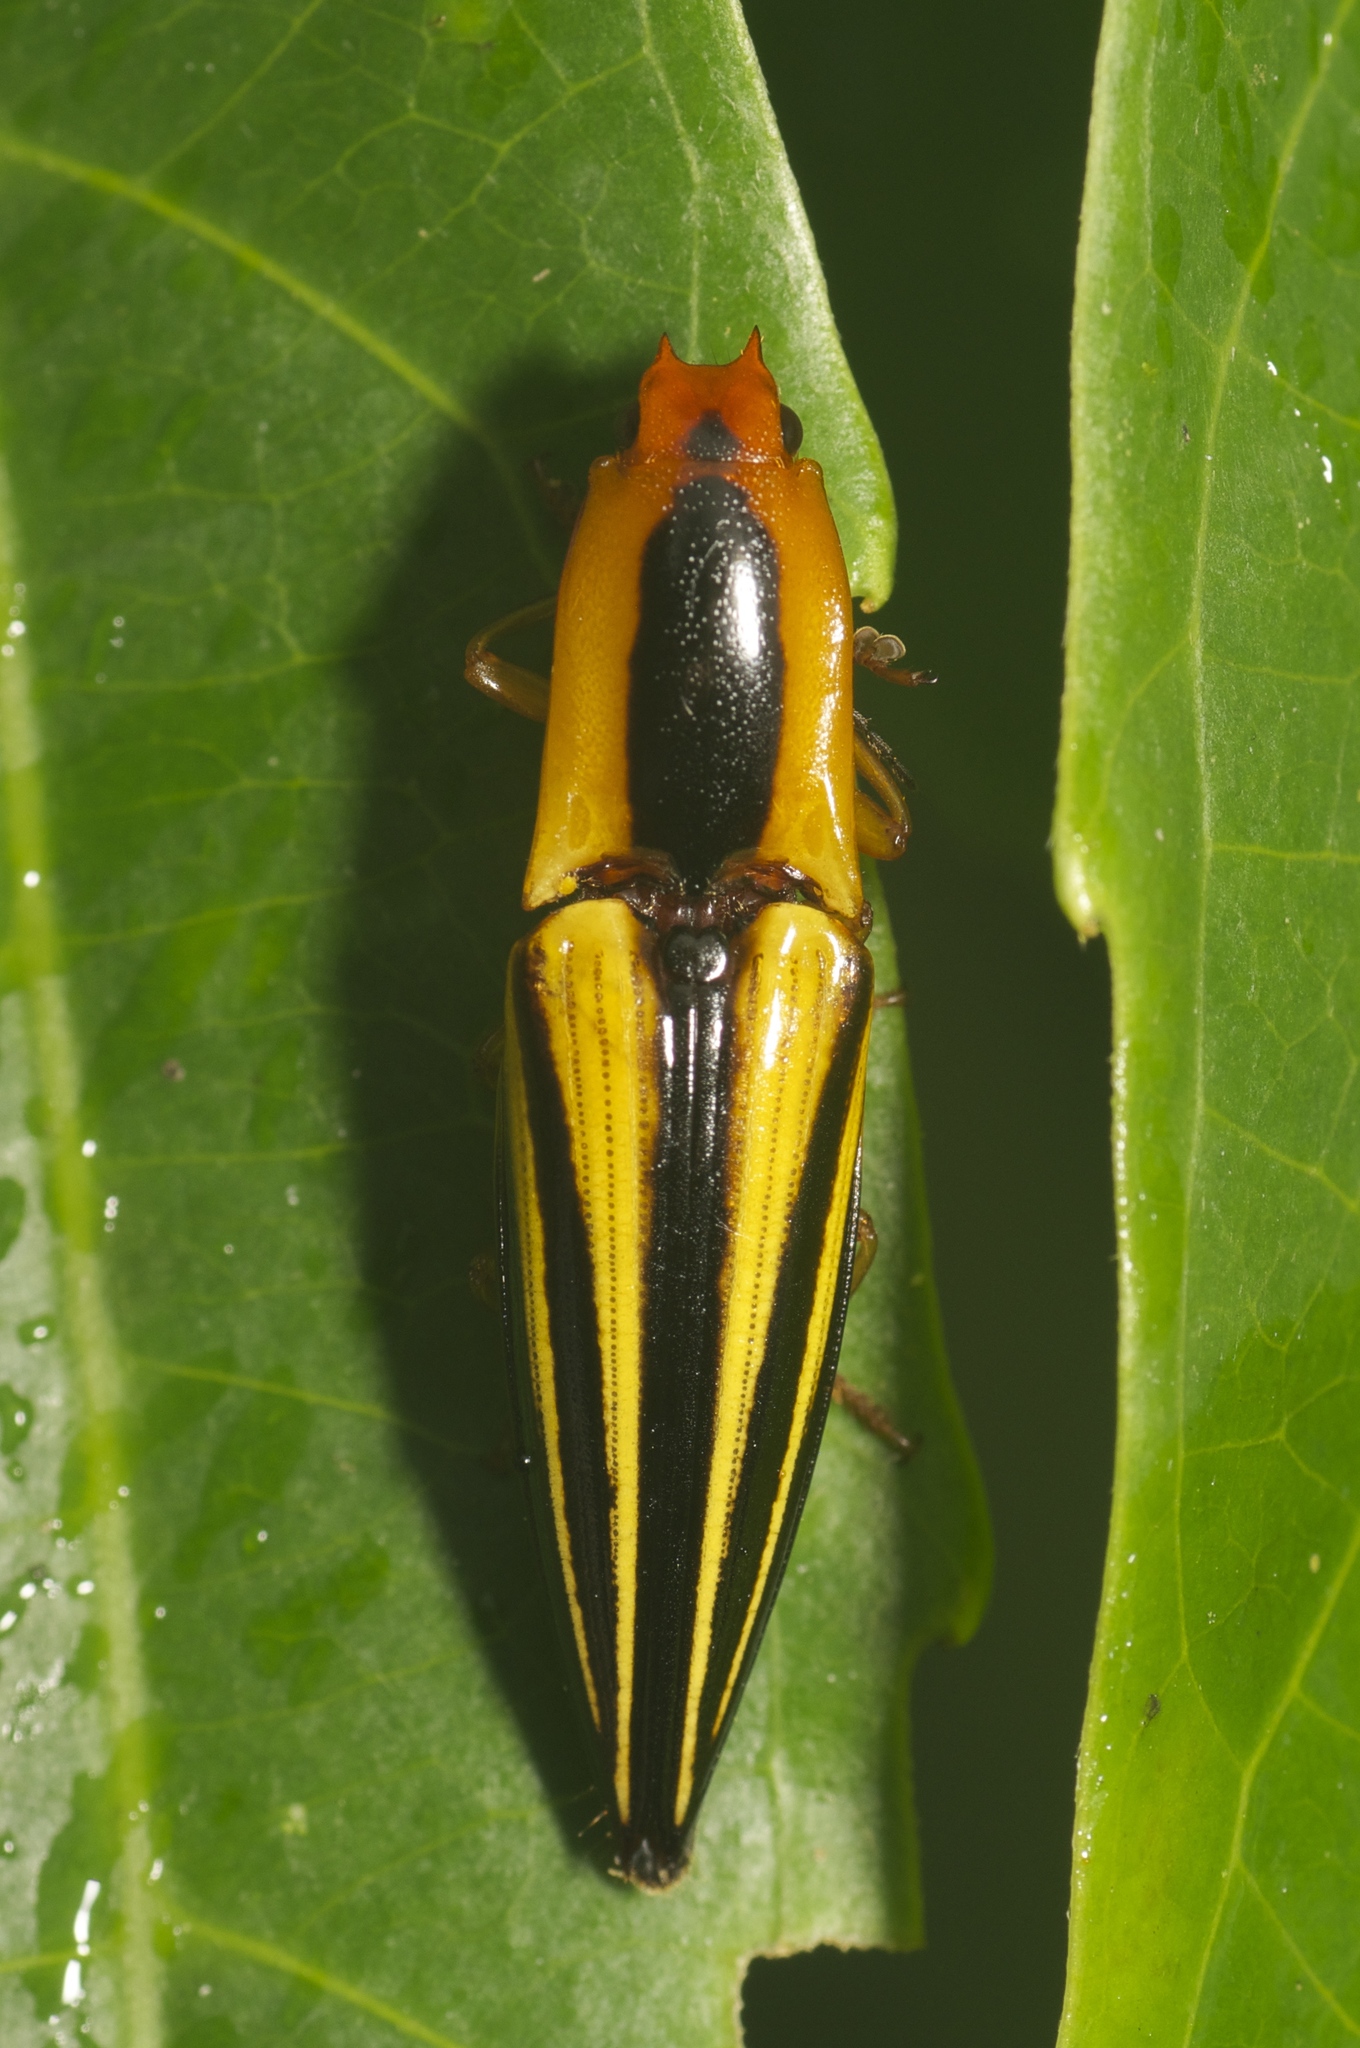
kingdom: Animalia
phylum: Arthropoda
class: Insecta
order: Coleoptera
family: Elateridae
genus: Semiotus
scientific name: Semiotus
